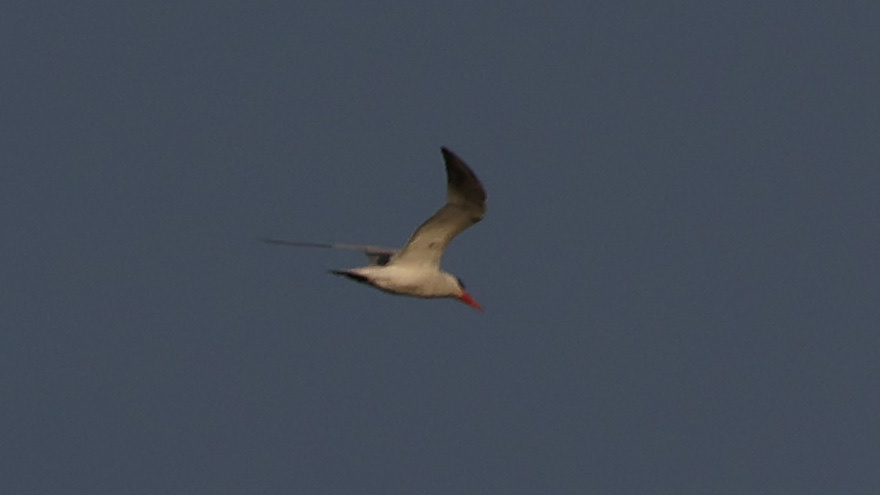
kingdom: Animalia
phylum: Chordata
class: Aves
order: Charadriiformes
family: Laridae
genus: Hydroprogne
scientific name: Hydroprogne caspia
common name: Caspian tern
